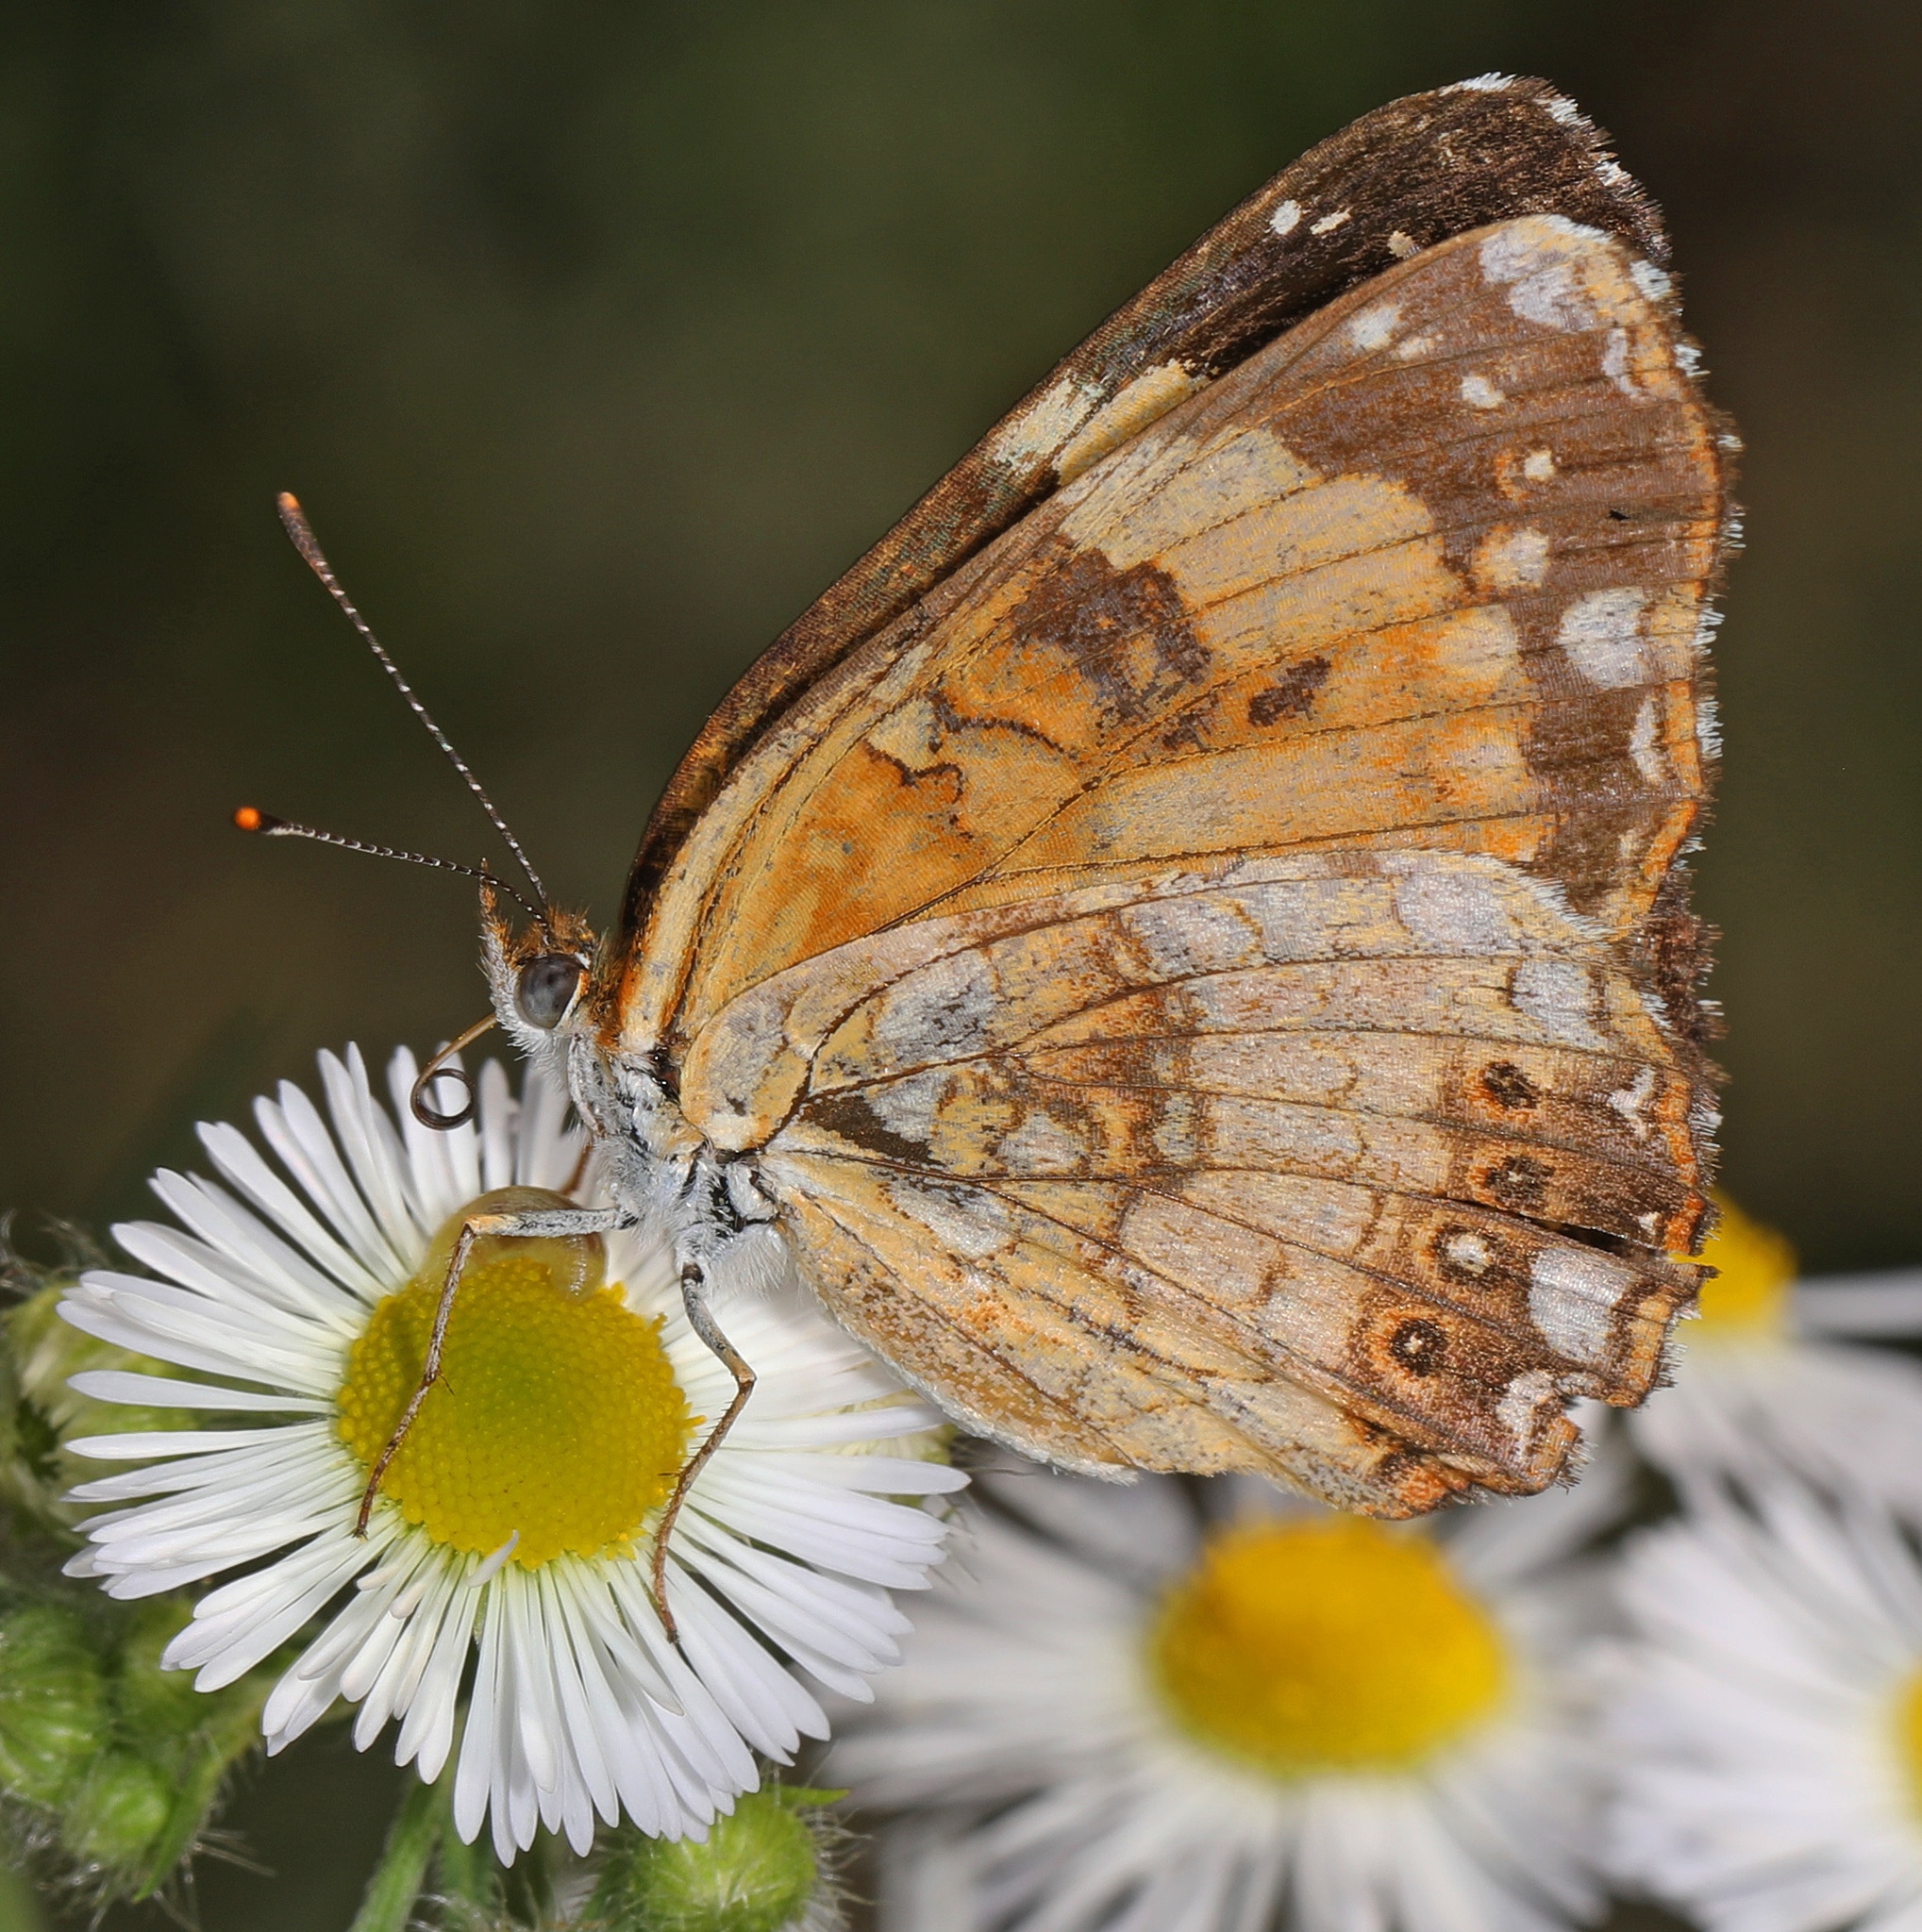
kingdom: Animalia
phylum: Arthropoda
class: Insecta
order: Lepidoptera
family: Nymphalidae
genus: Chlosyne
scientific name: Chlosyne nycteis
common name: Silvery checkerspot
